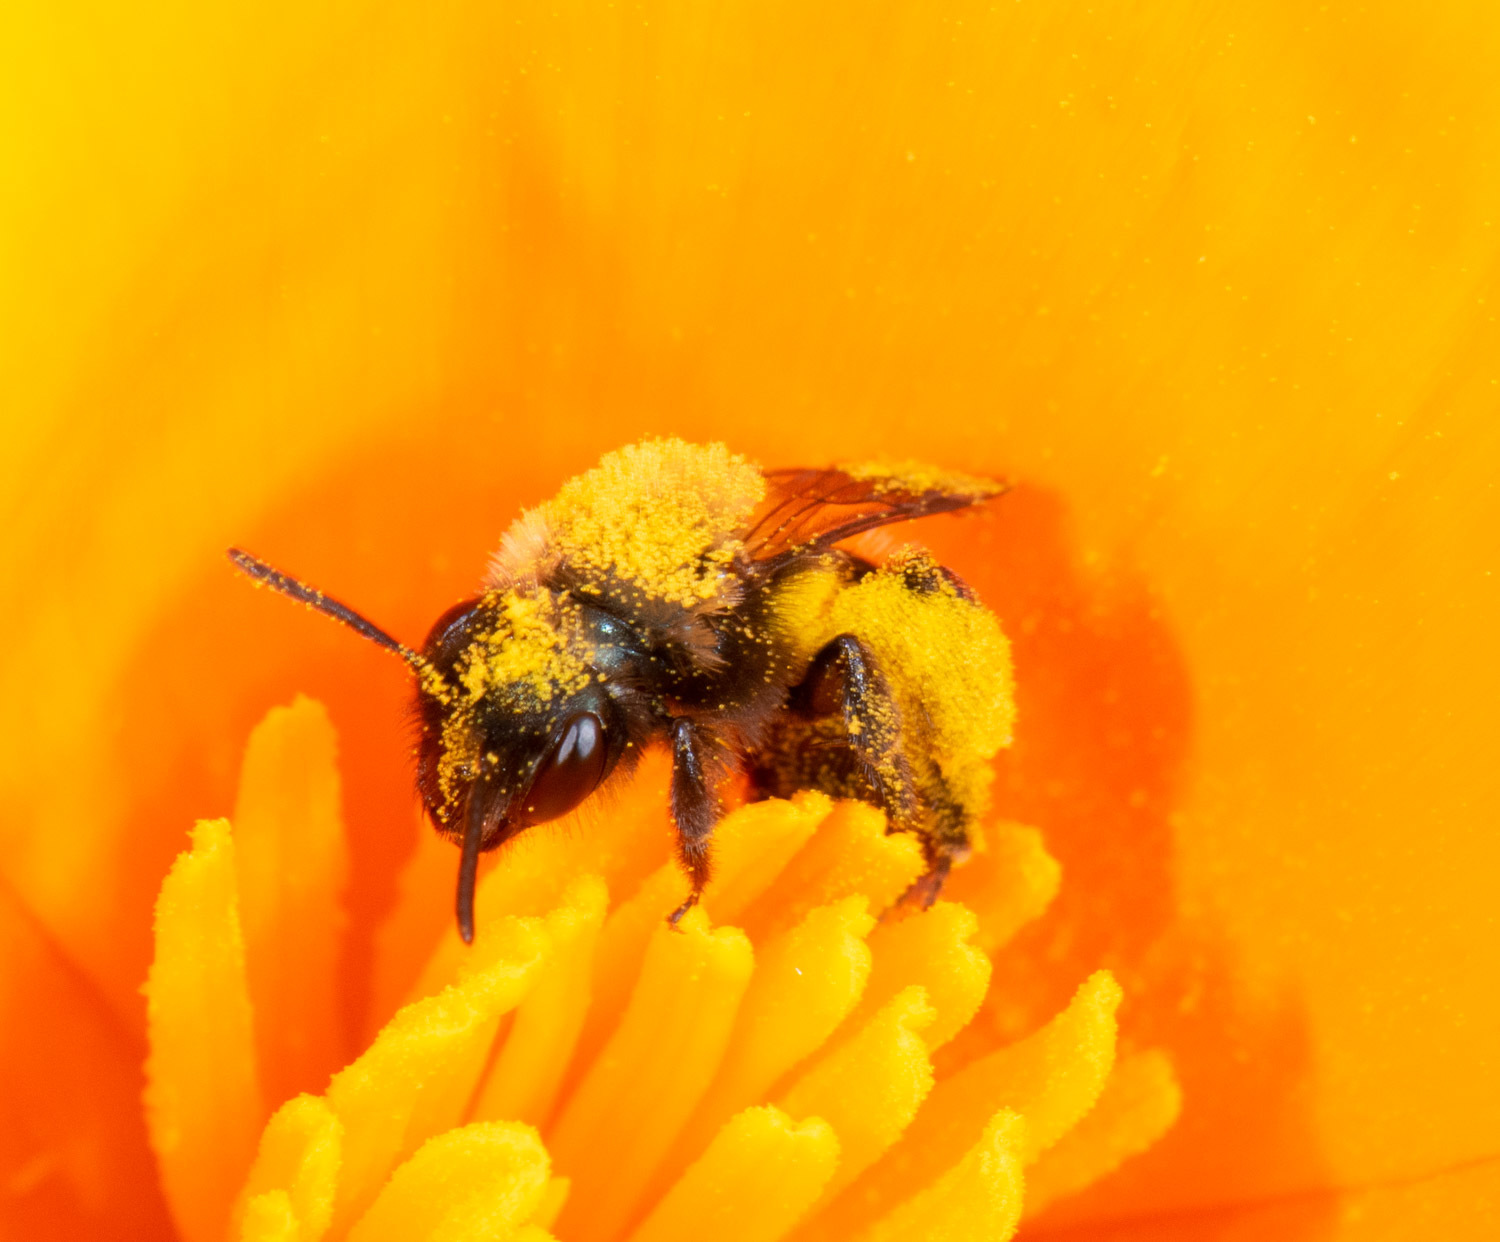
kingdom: Animalia
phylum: Arthropoda
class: Insecta
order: Hymenoptera
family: Andrenidae
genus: Andrena
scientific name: Andrena nigrocaerulea
